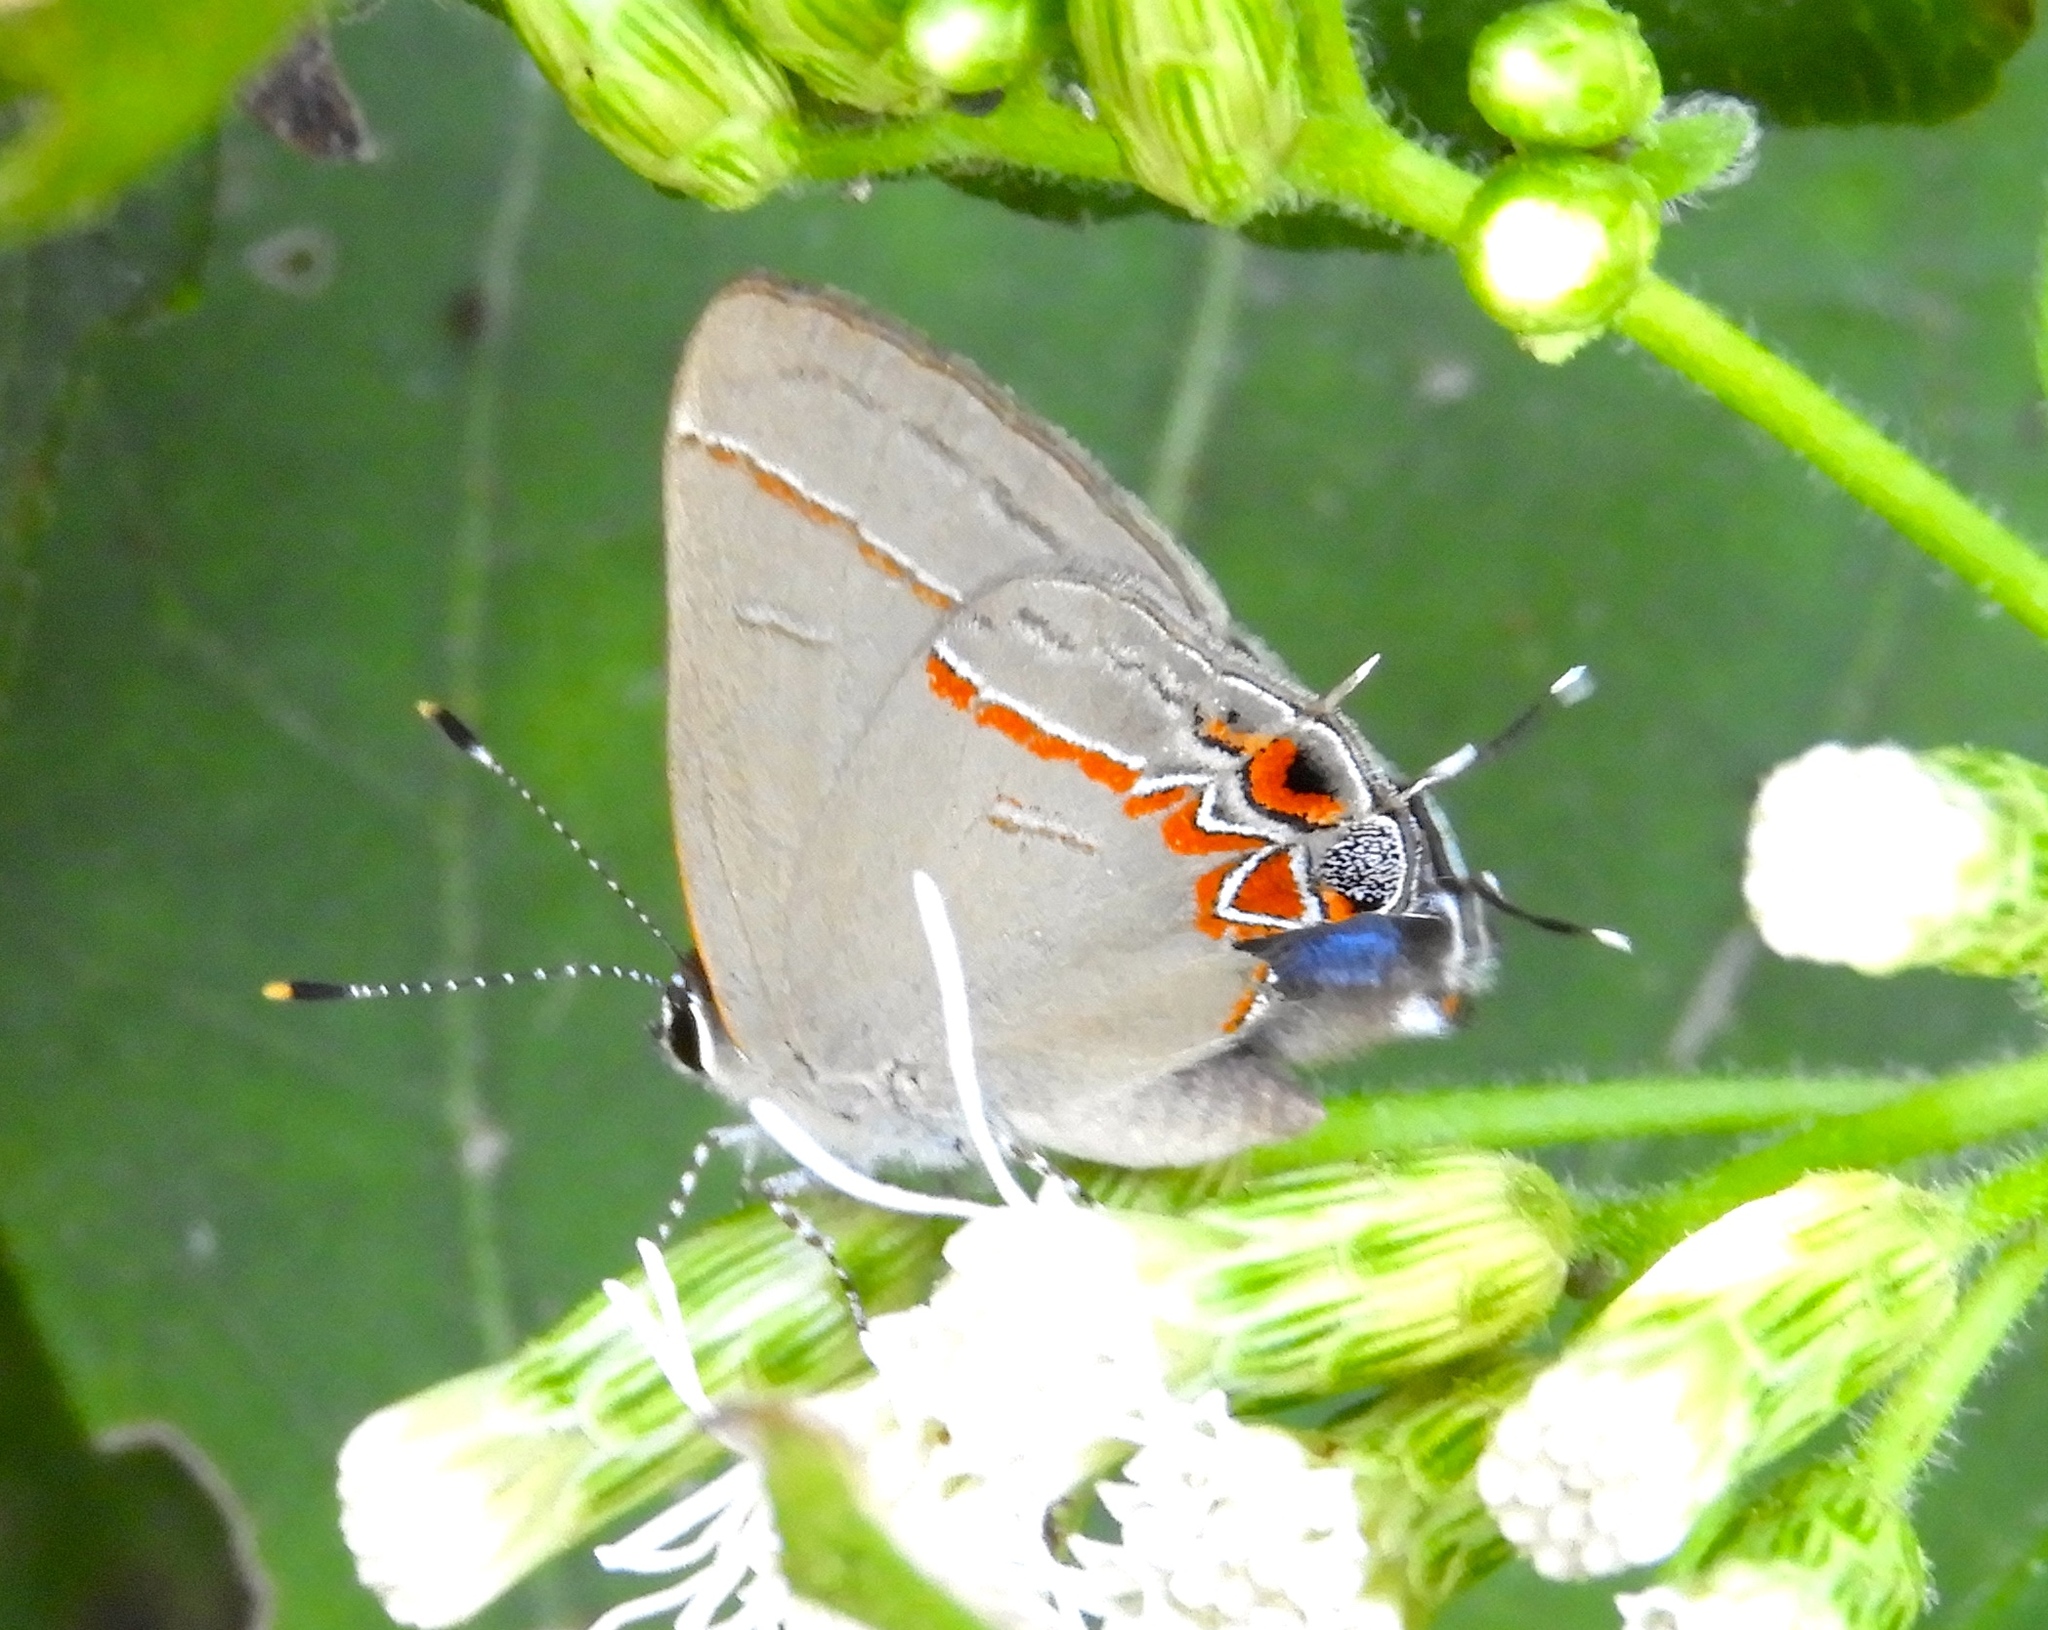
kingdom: Animalia
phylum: Arthropoda
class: Insecta
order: Lepidoptera
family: Lycaenidae
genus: Calycopis
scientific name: Calycopis isobeon
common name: Dusky-blue groundstreak
